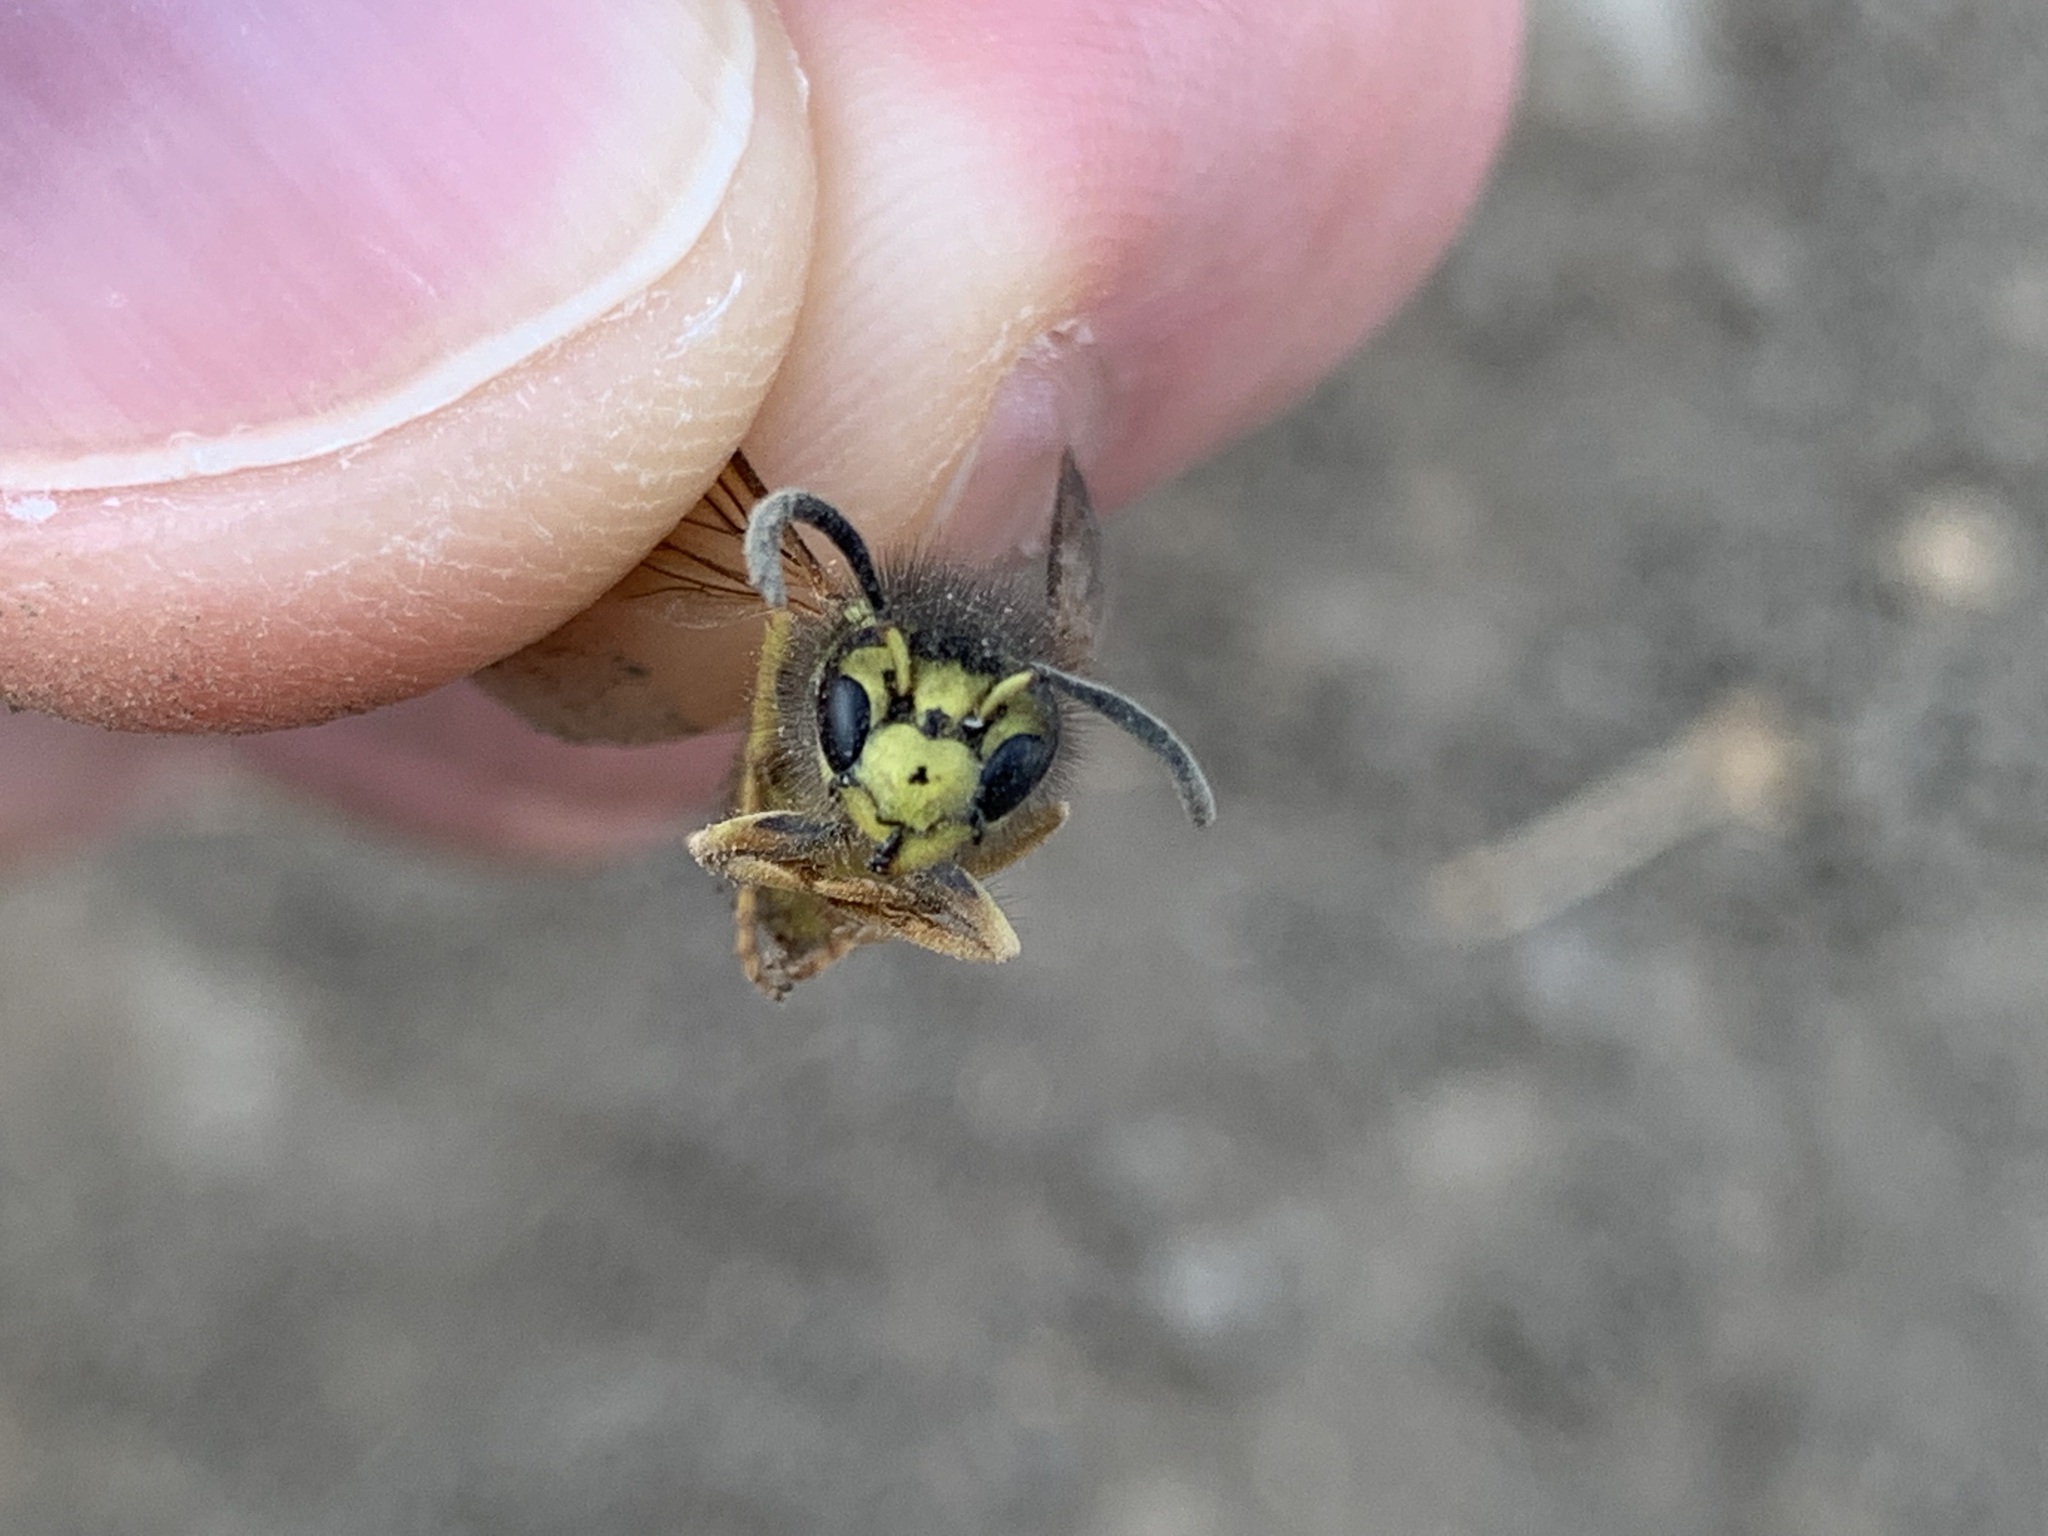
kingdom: Animalia
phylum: Arthropoda
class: Insecta
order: Hymenoptera
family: Vespidae
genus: Vespula
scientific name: Vespula pensylvanica
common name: Western yellowjacket
